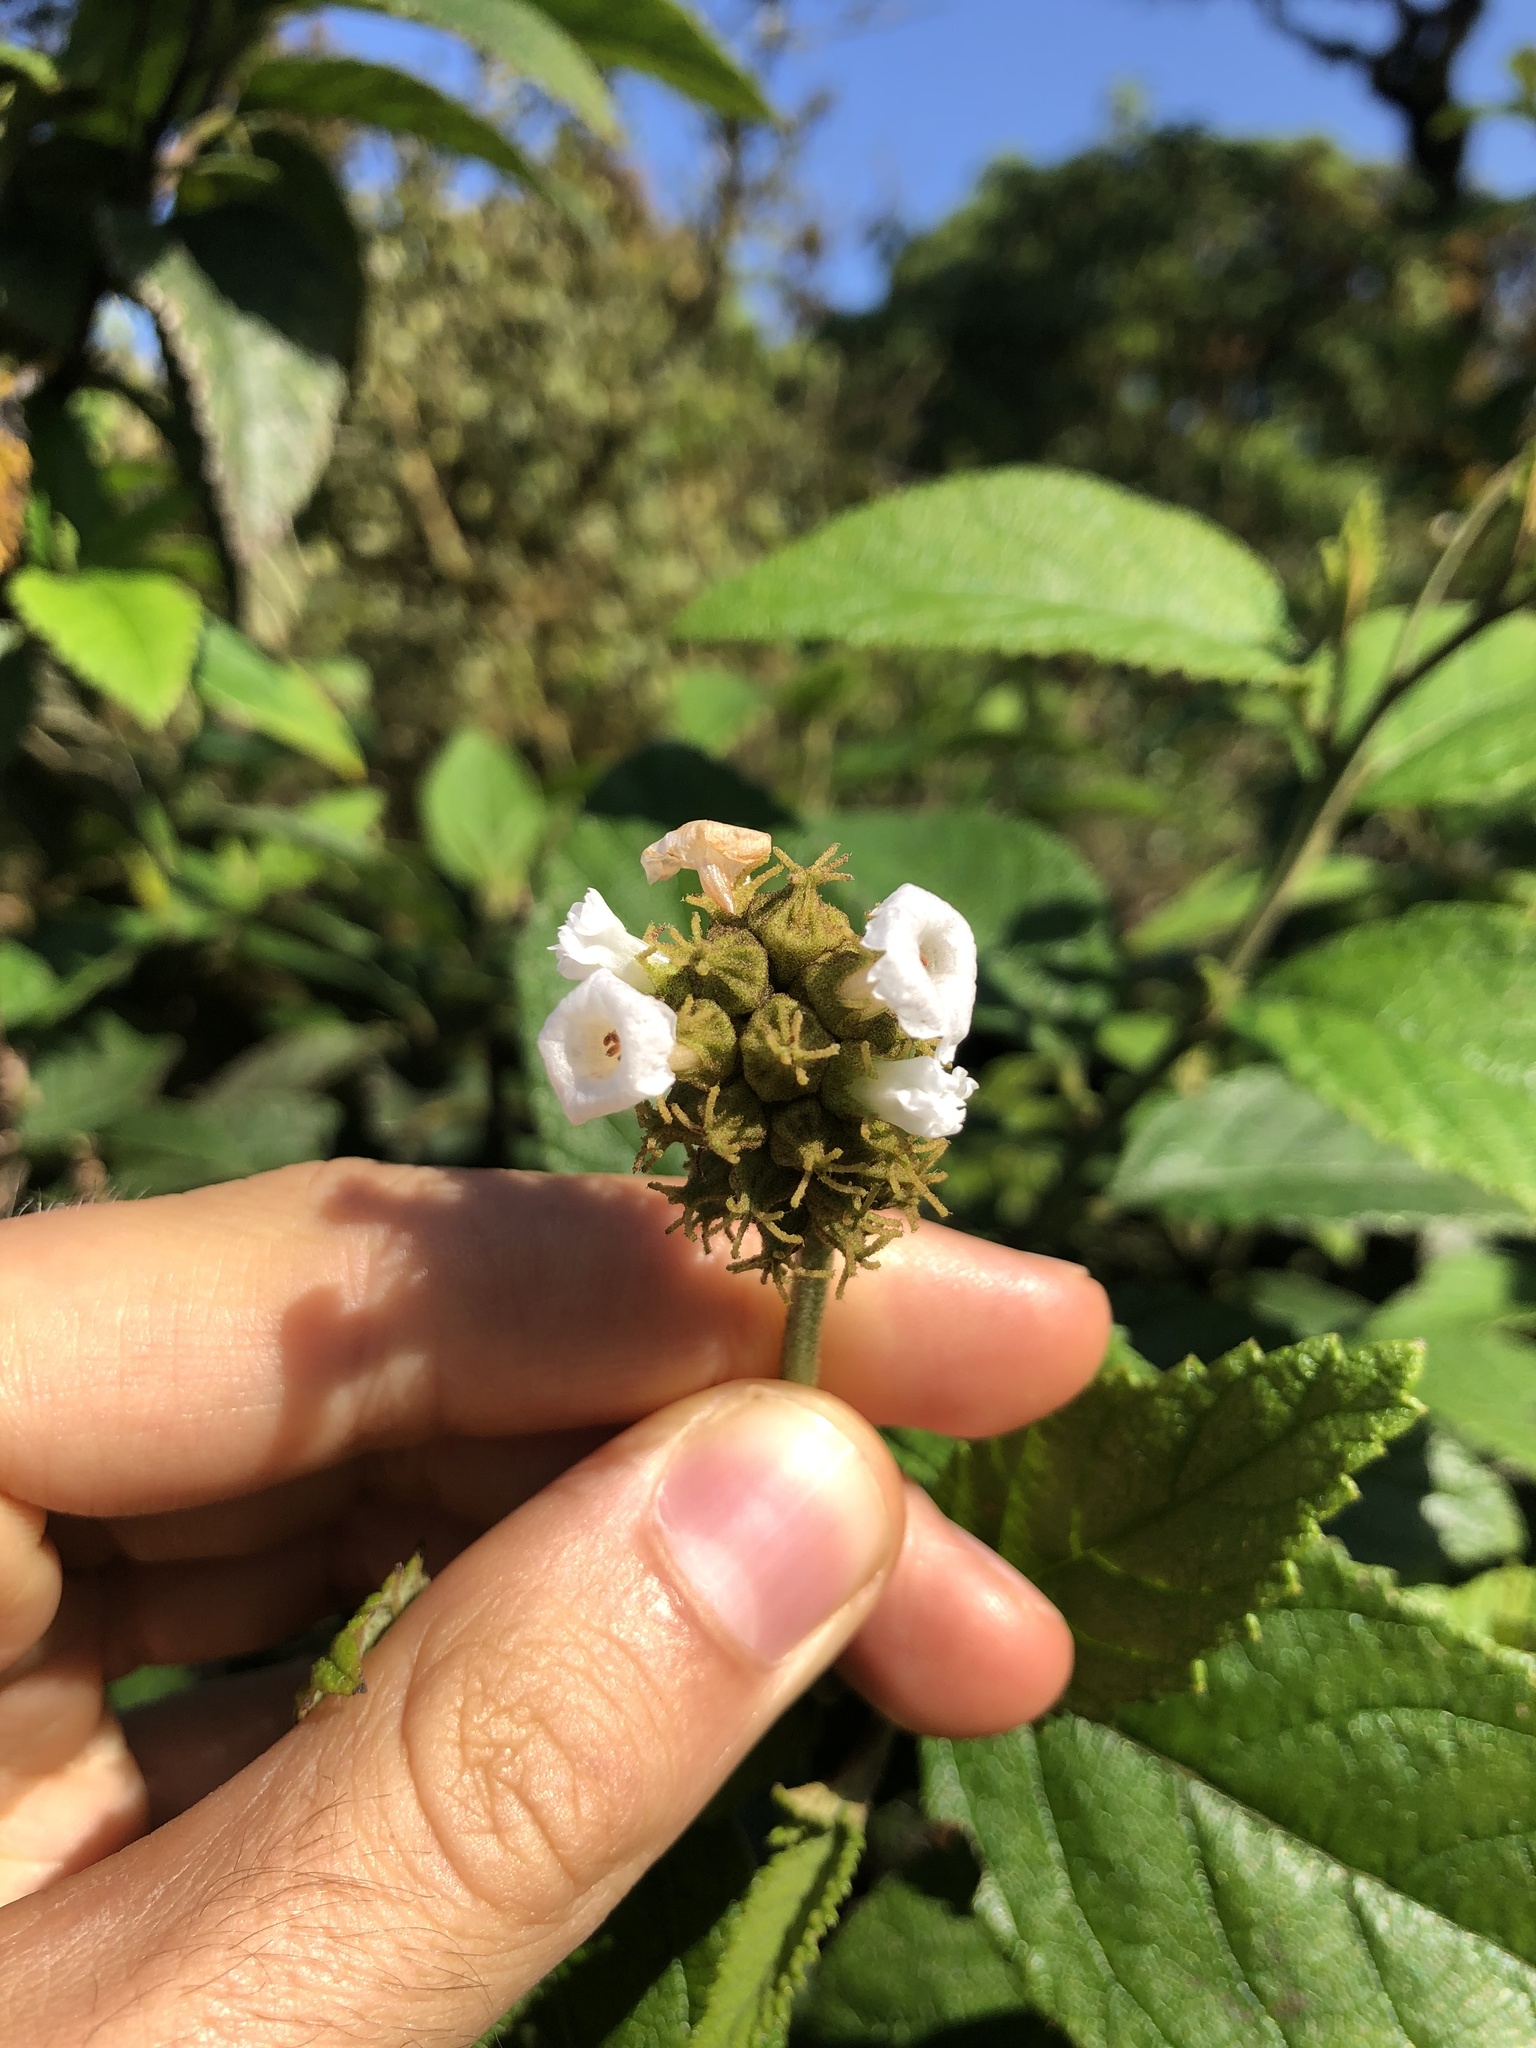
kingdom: Plantae
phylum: Tracheophyta
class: Magnoliopsida
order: Boraginales
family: Cordiaceae
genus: Varronia
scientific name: Varronia leucophlyctis
